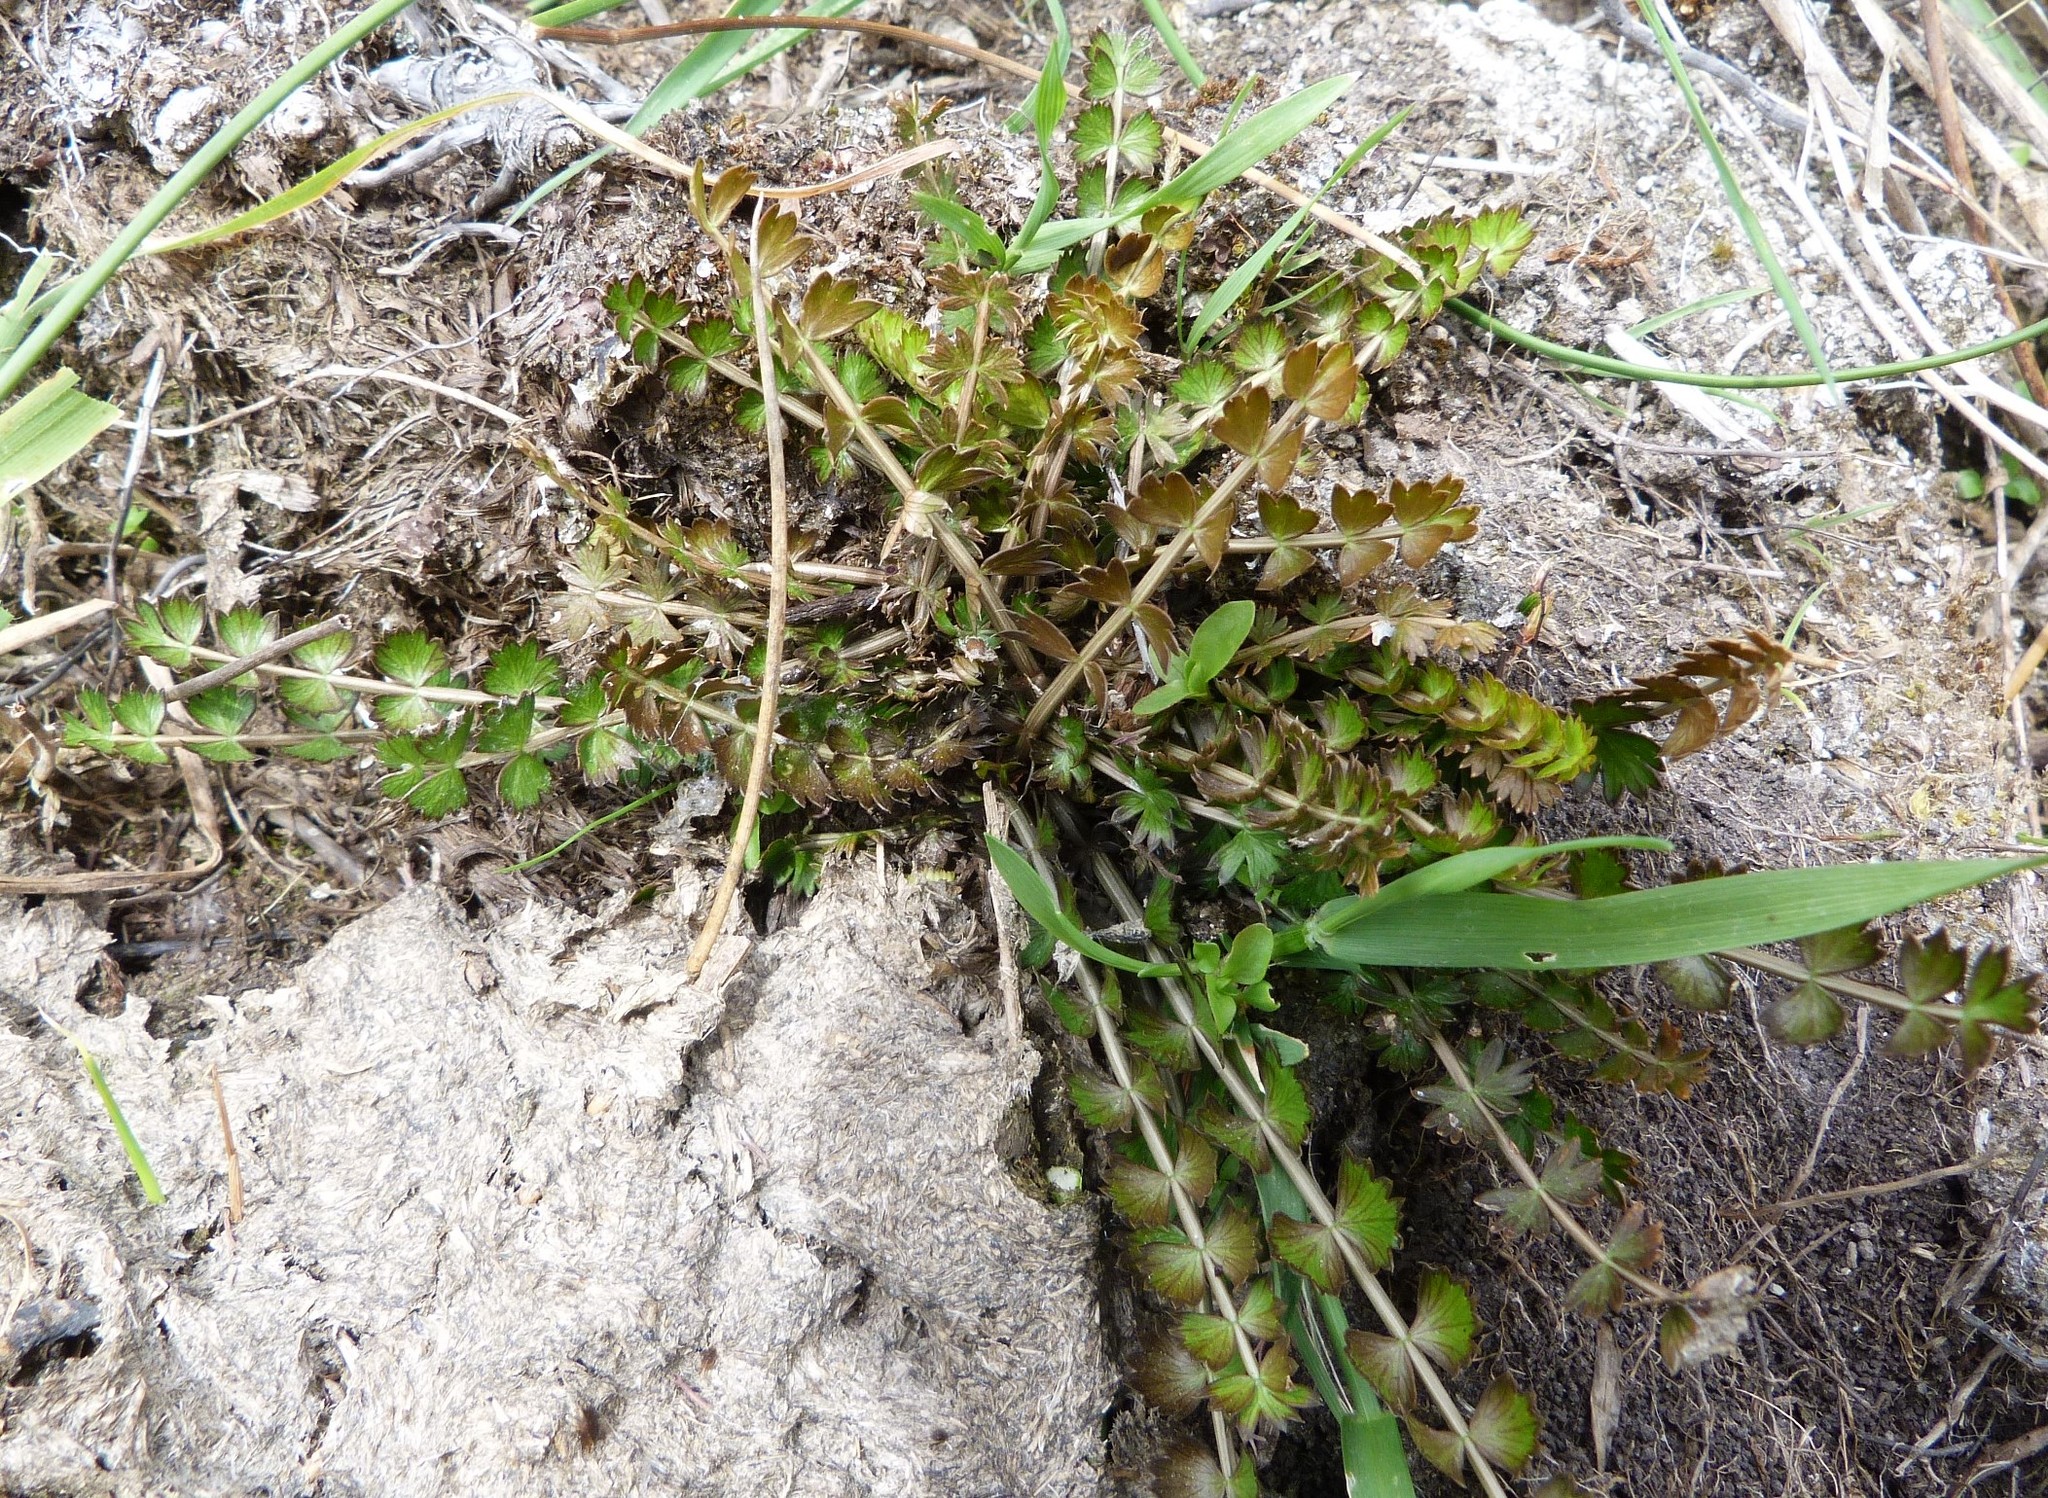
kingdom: Plantae
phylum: Tracheophyta
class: Magnoliopsida
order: Apiales
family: Apiaceae
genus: Anisotome
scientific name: Anisotome aromatica
